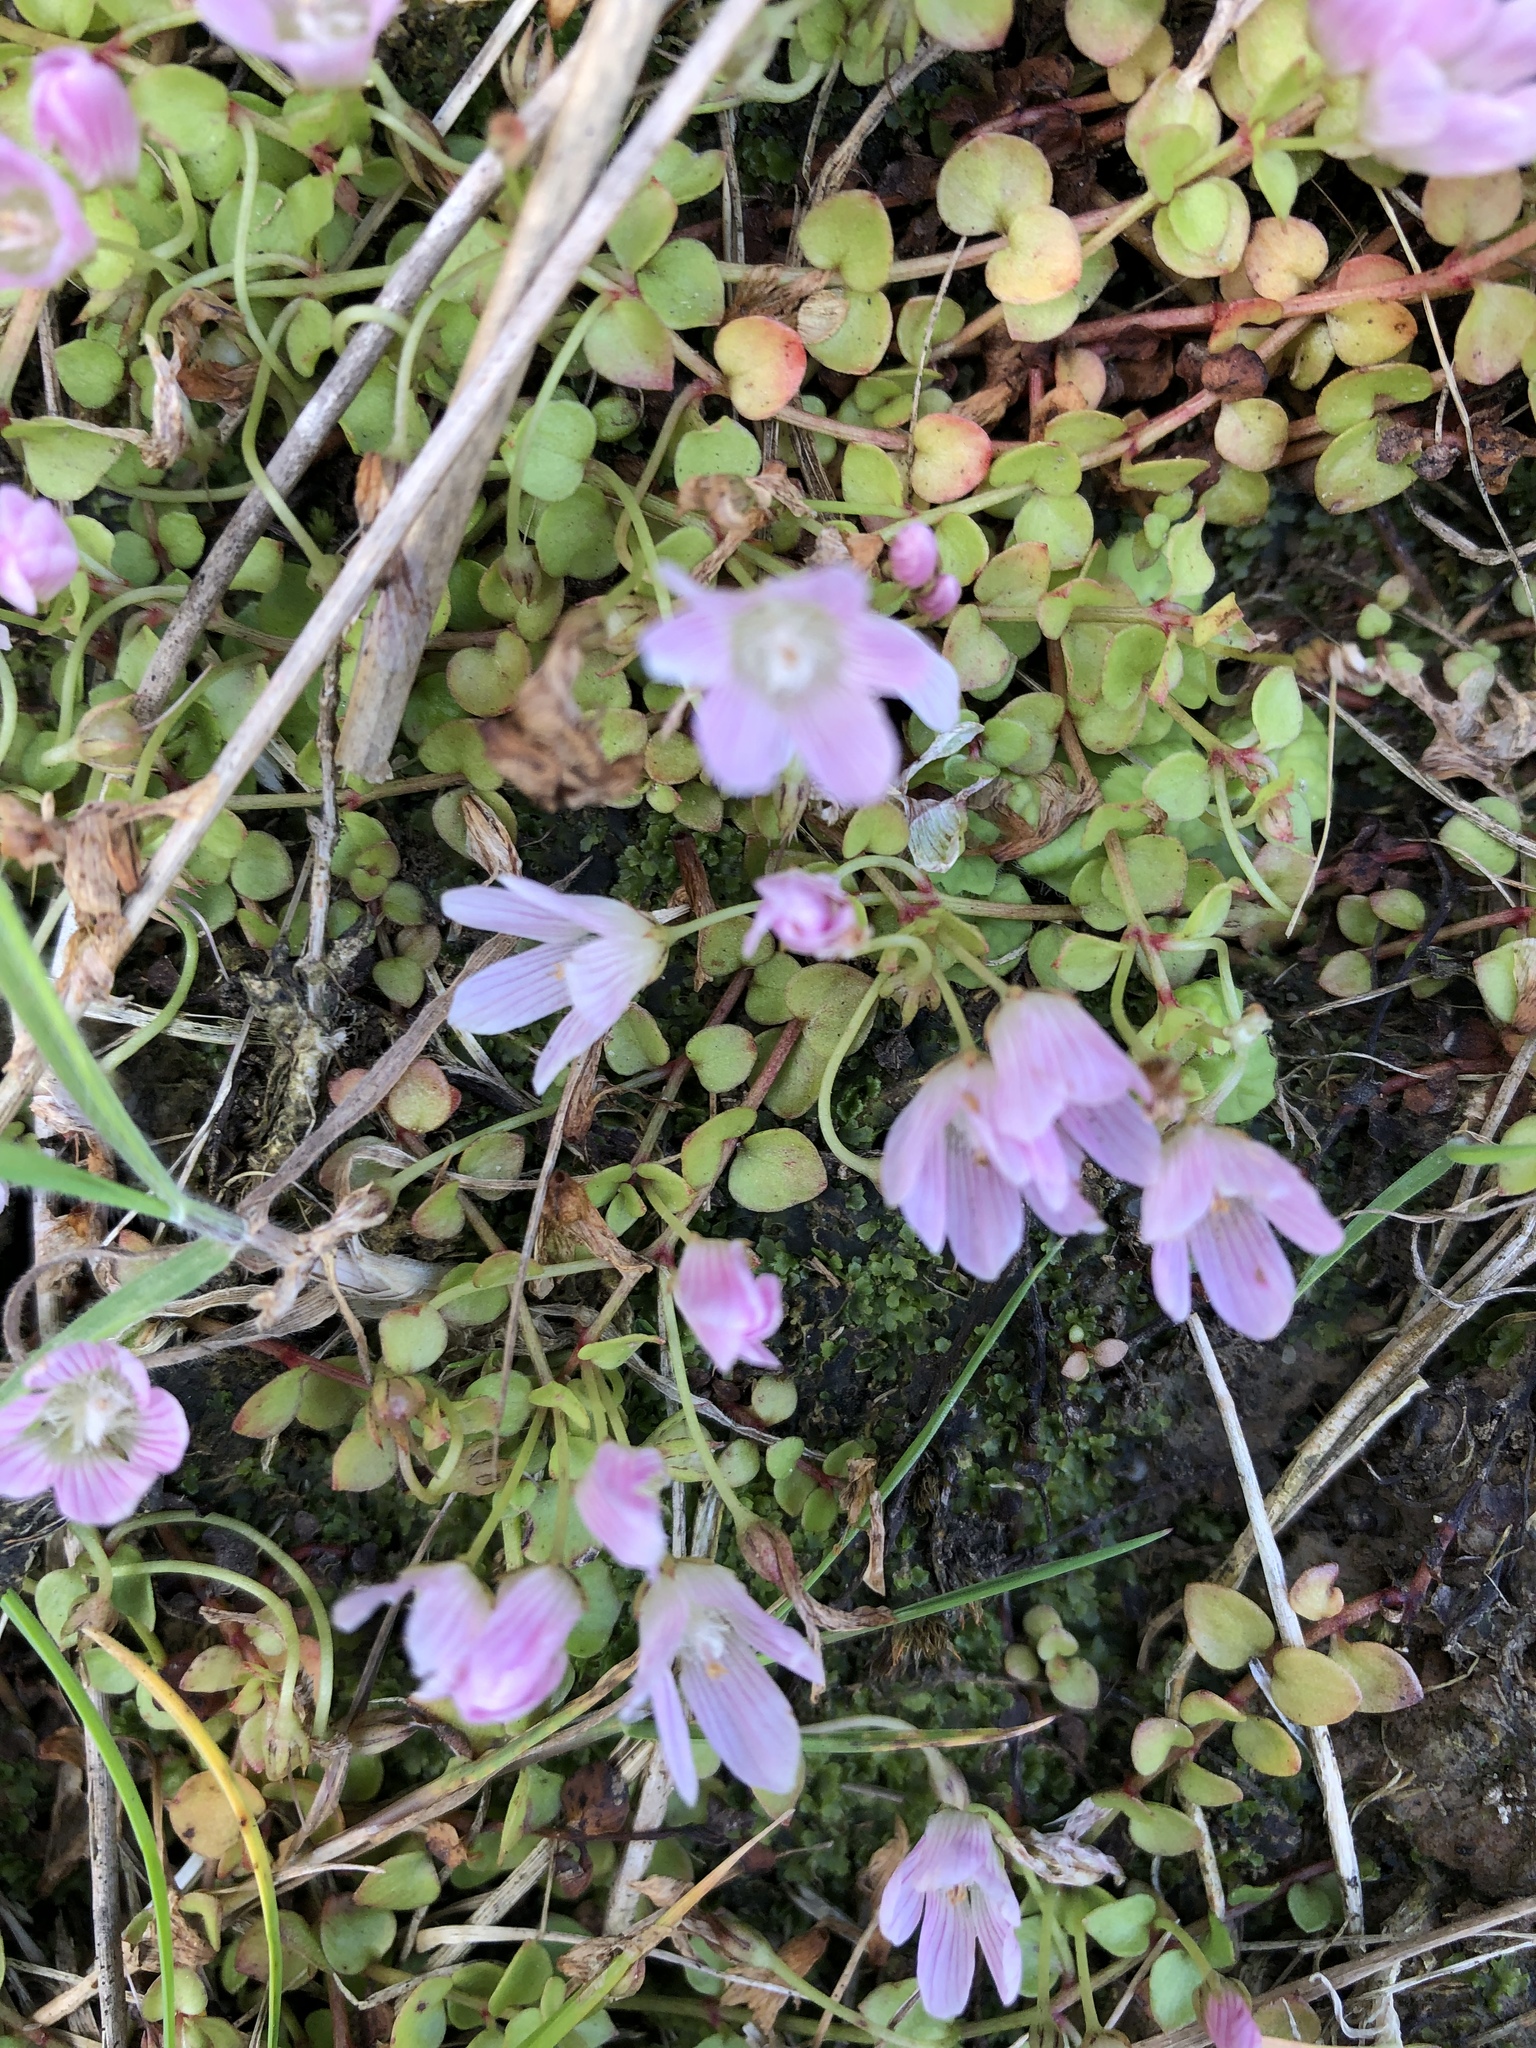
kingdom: Plantae
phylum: Tracheophyta
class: Magnoliopsida
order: Ericales
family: Primulaceae
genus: Lysimachia
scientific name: Lysimachia tenella
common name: European bog pimpernel
